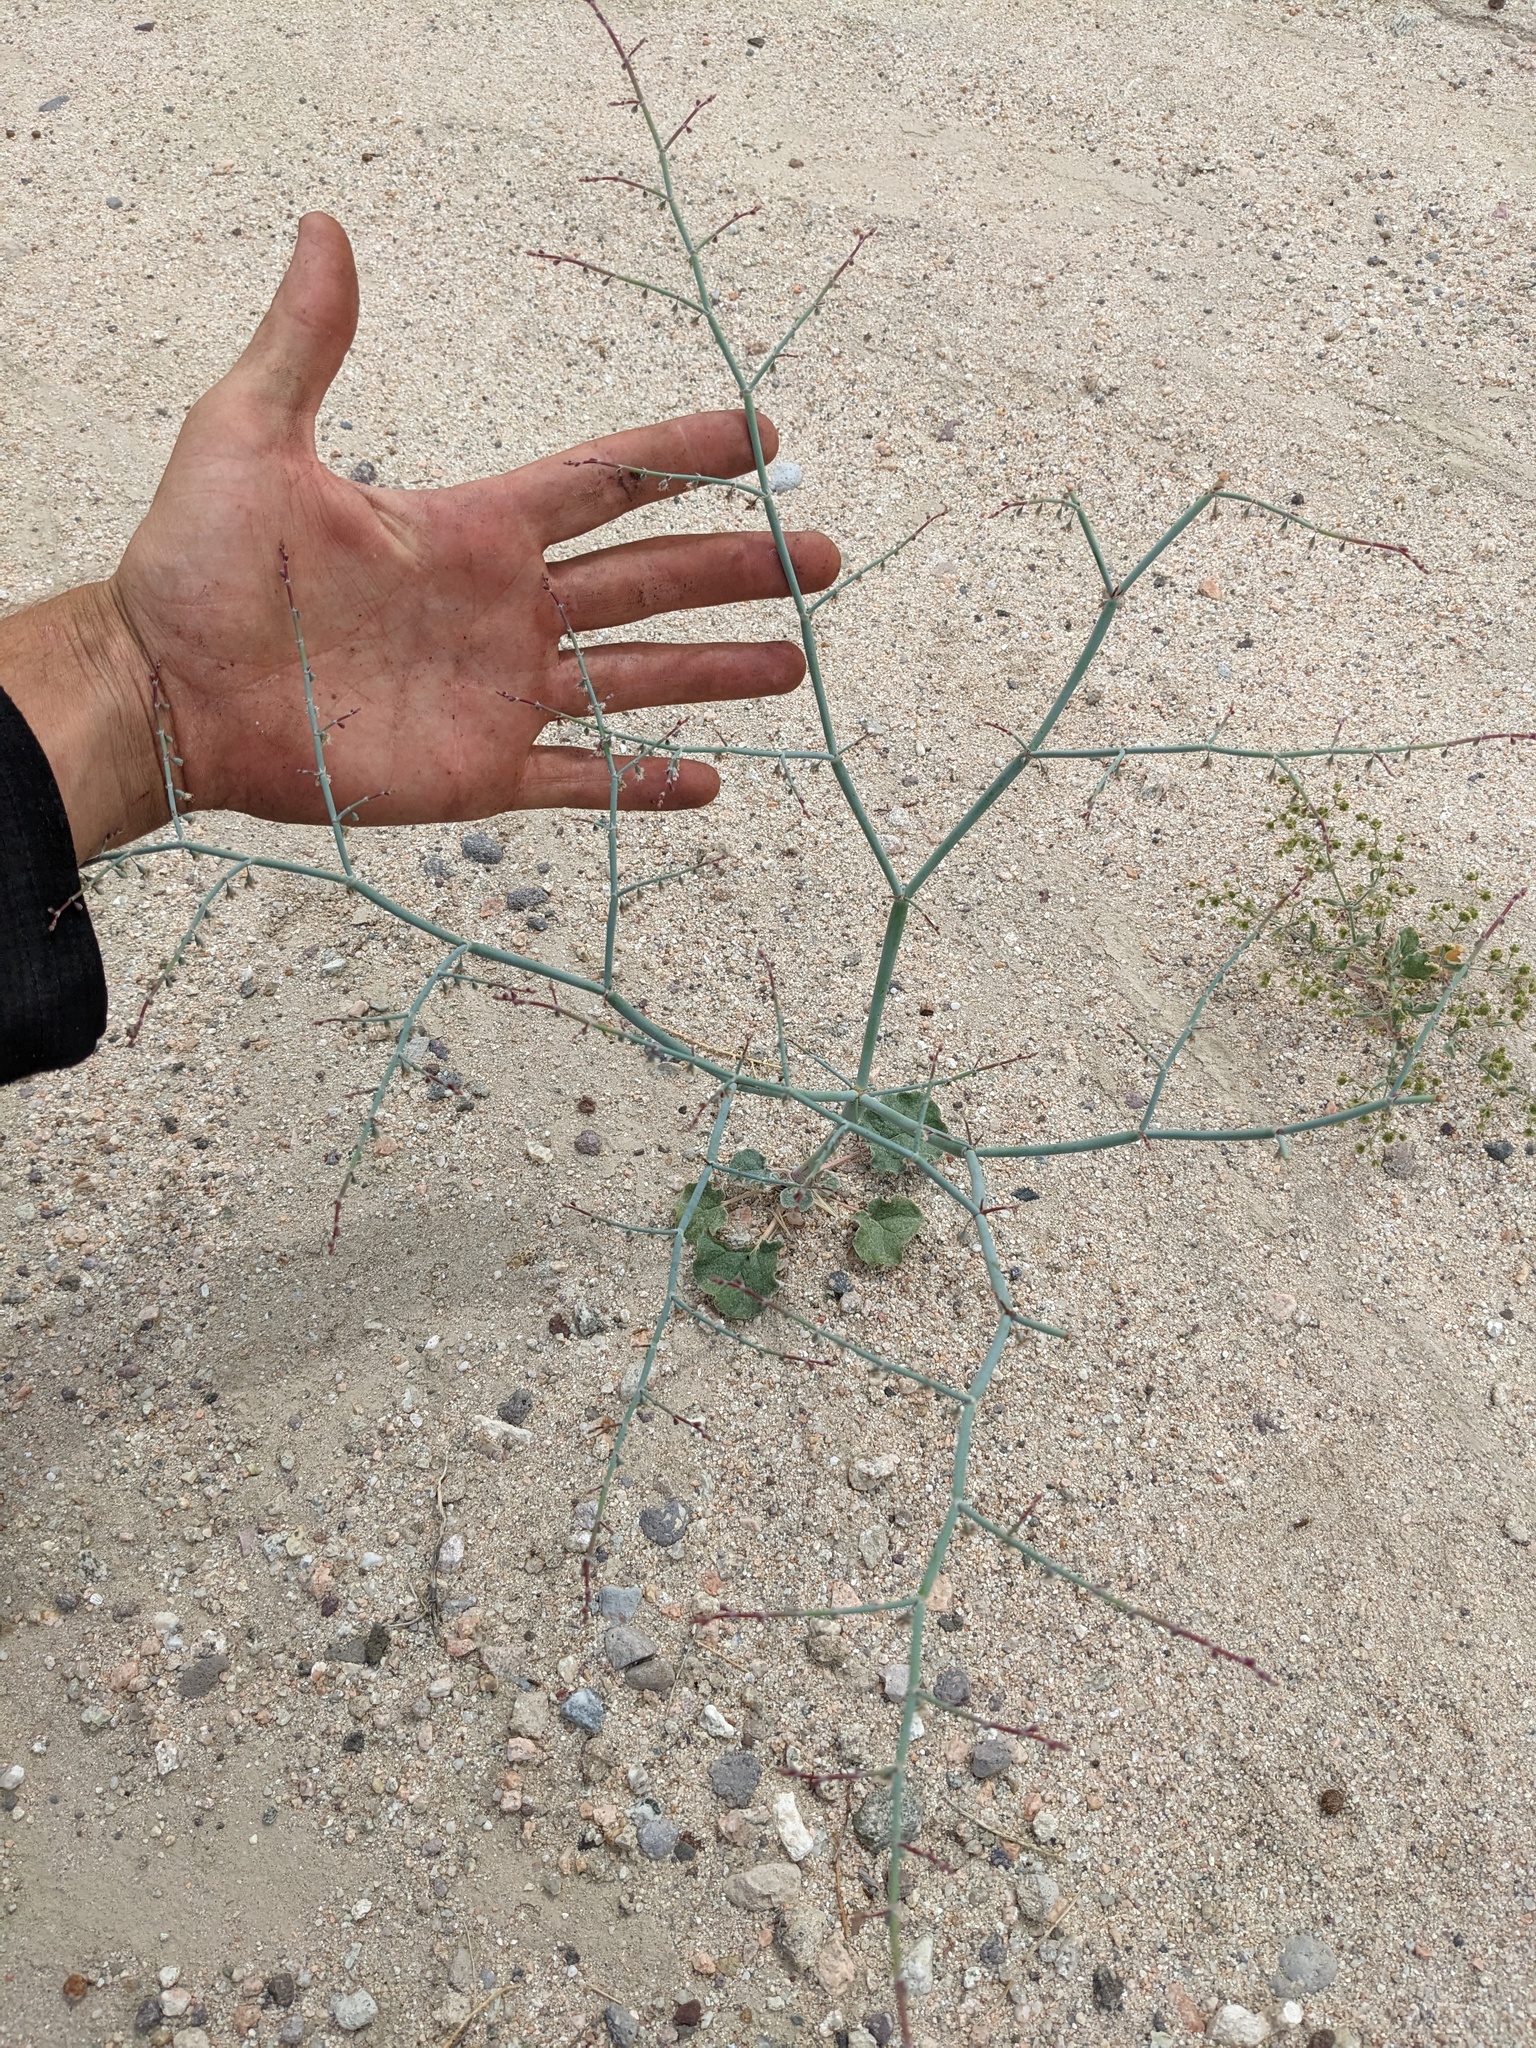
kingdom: Plantae
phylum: Tracheophyta
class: Magnoliopsida
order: Caryophyllales
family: Polygonaceae
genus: Eriogonum
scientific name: Eriogonum deflexum
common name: Skeleton-weed
